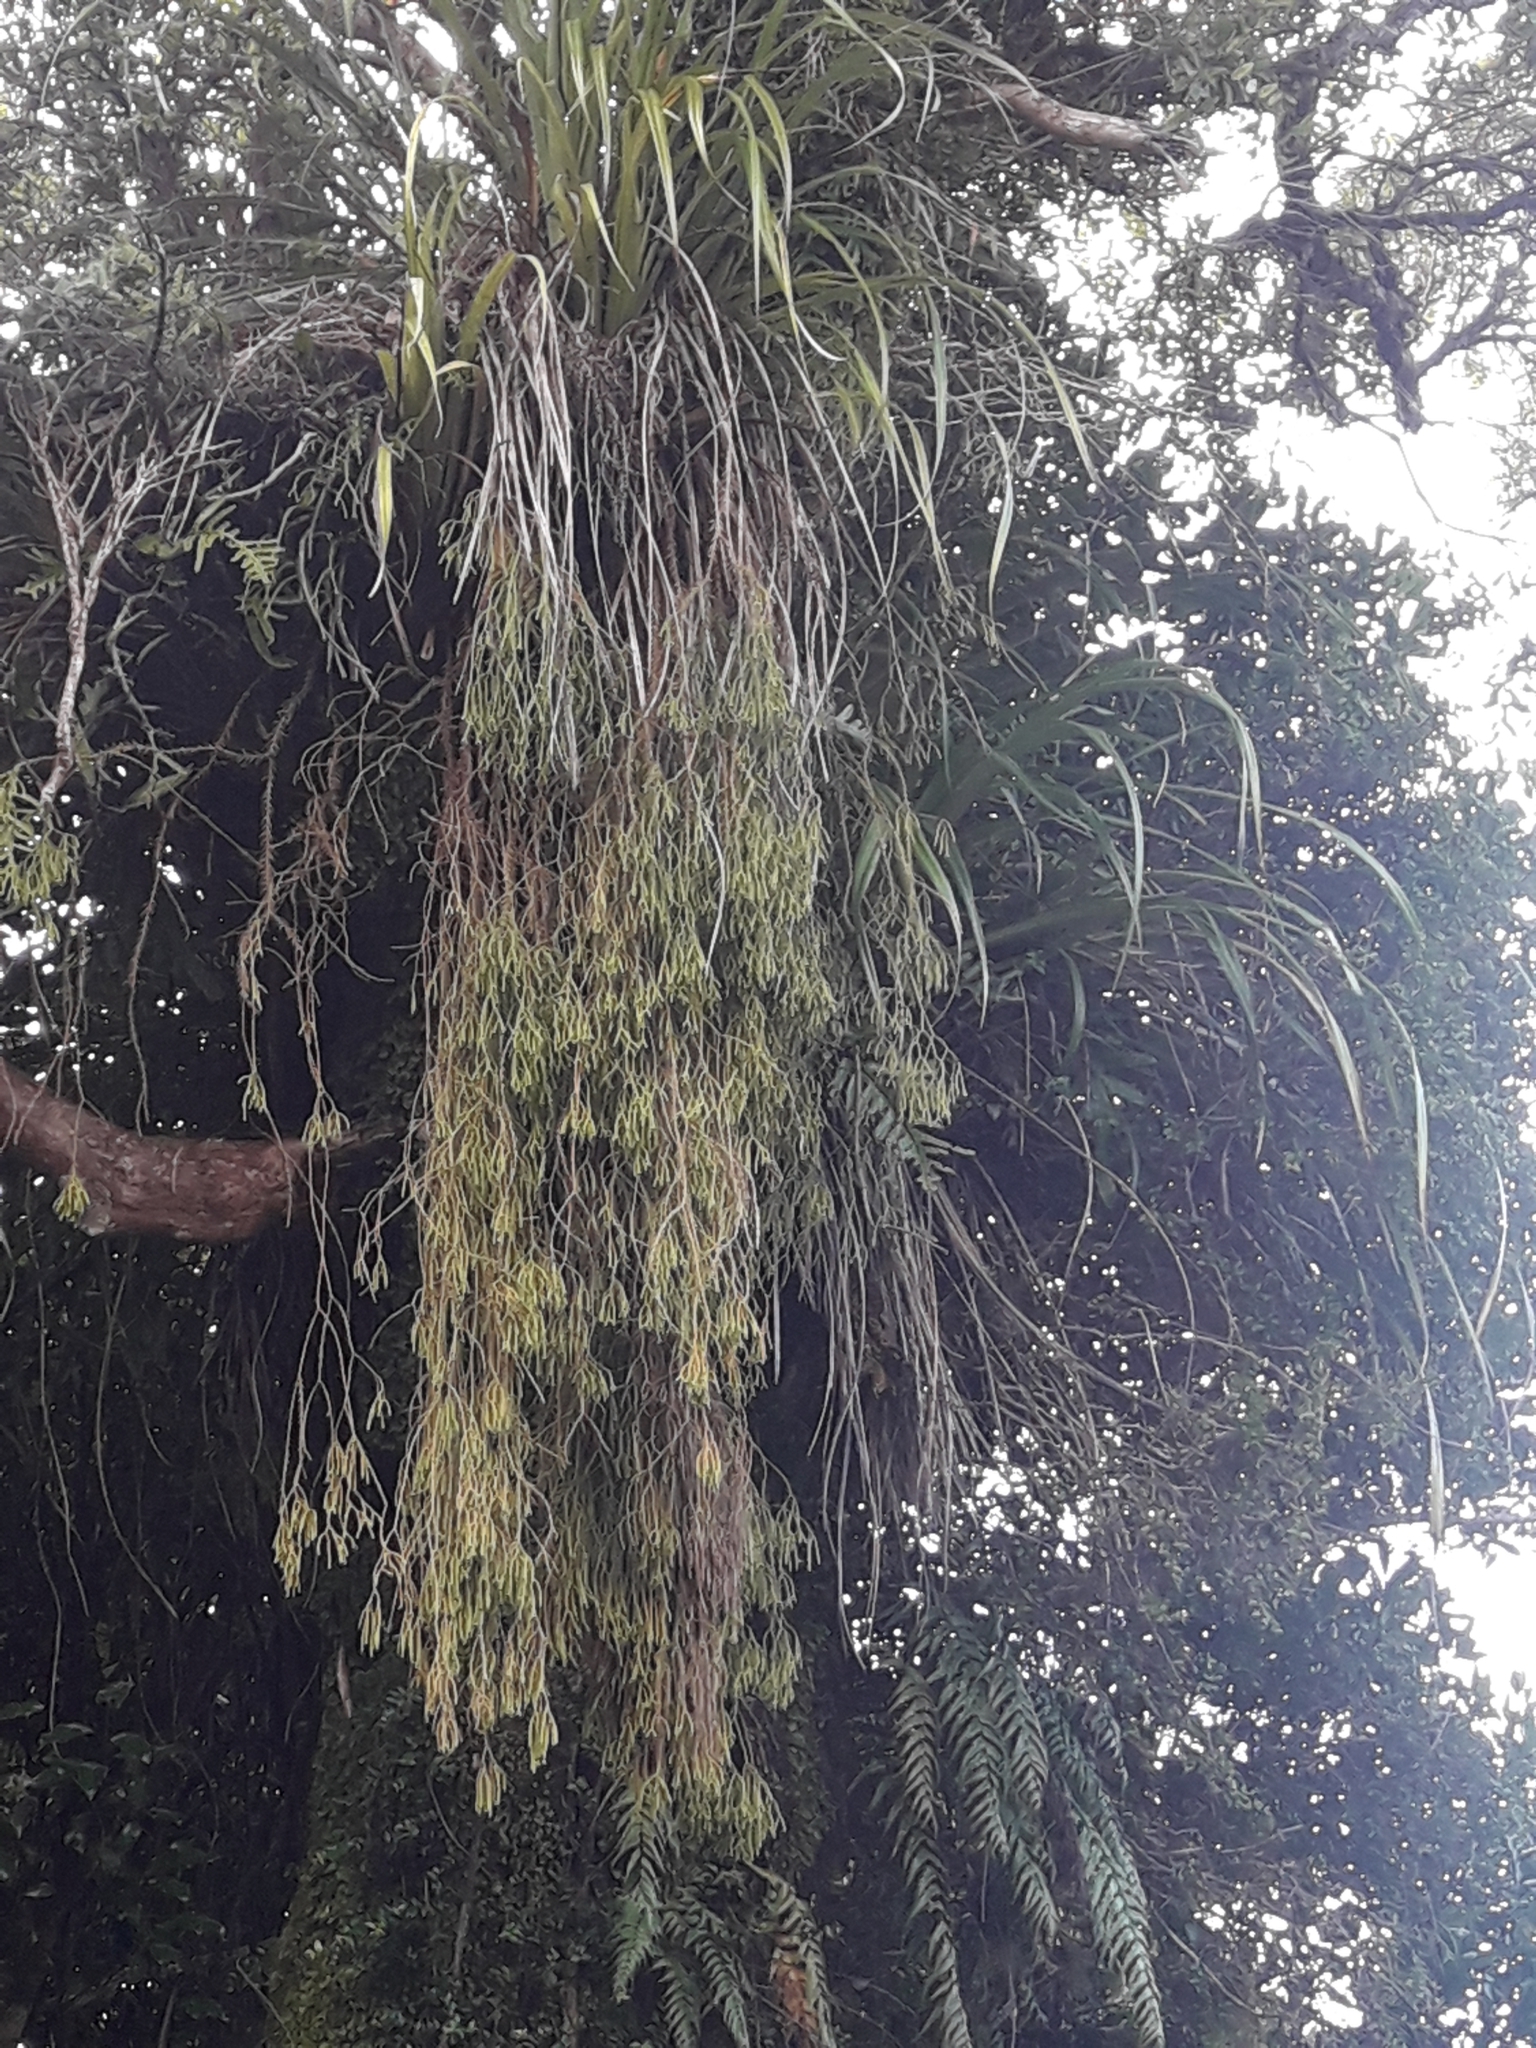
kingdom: Plantae
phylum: Tracheophyta
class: Lycopodiopsida
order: Lycopodiales
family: Lycopodiaceae
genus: Phlegmariurus
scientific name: Phlegmariurus varius
